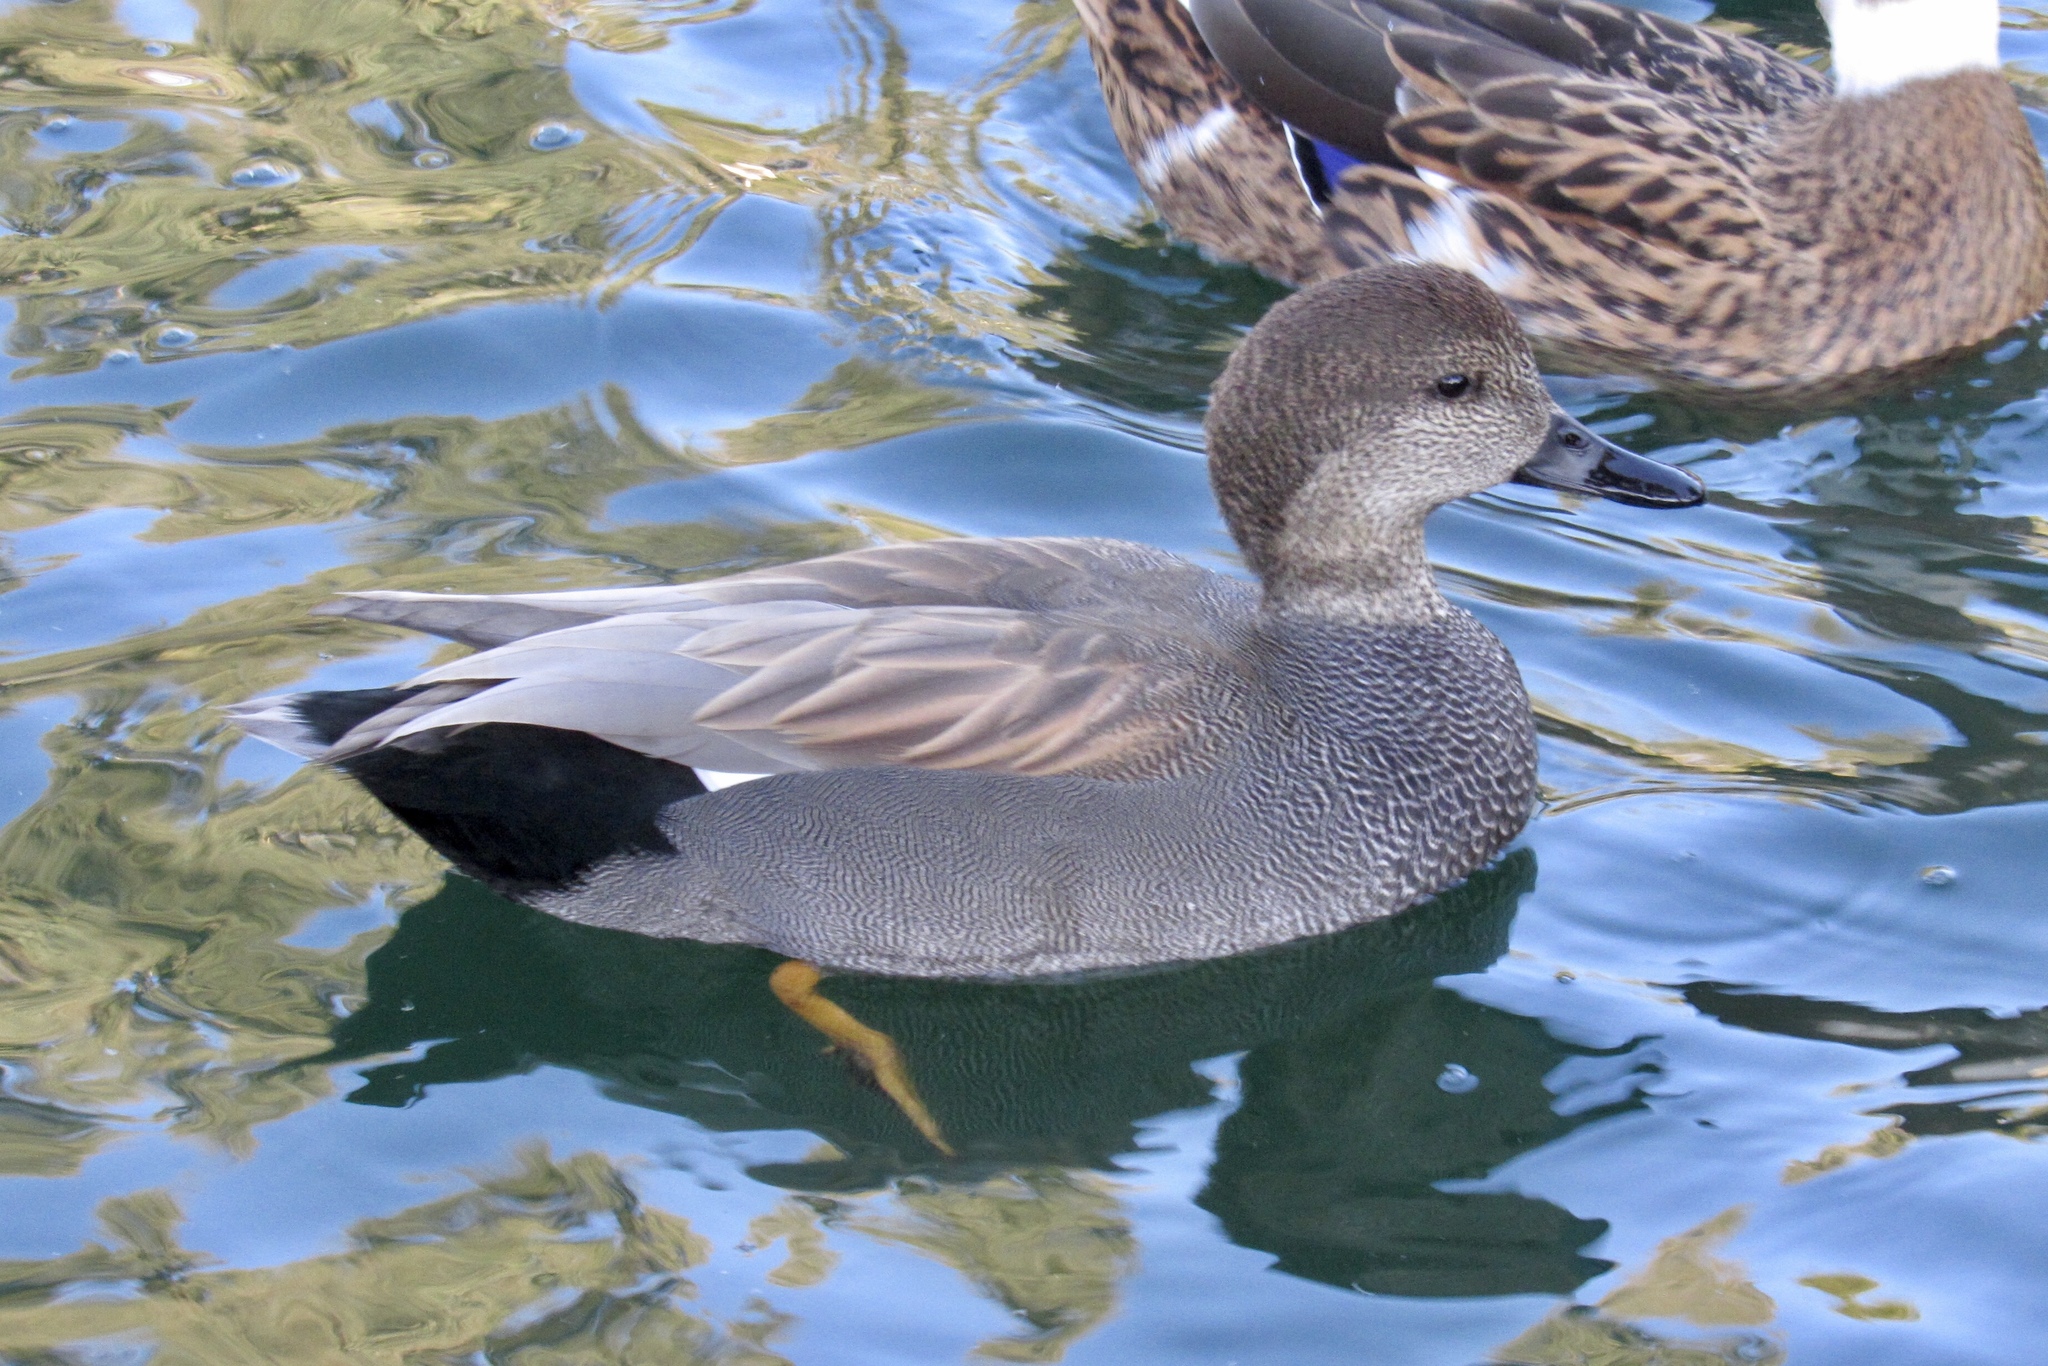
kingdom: Animalia
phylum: Chordata
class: Aves
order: Anseriformes
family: Anatidae
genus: Mareca
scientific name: Mareca strepera
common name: Gadwall
